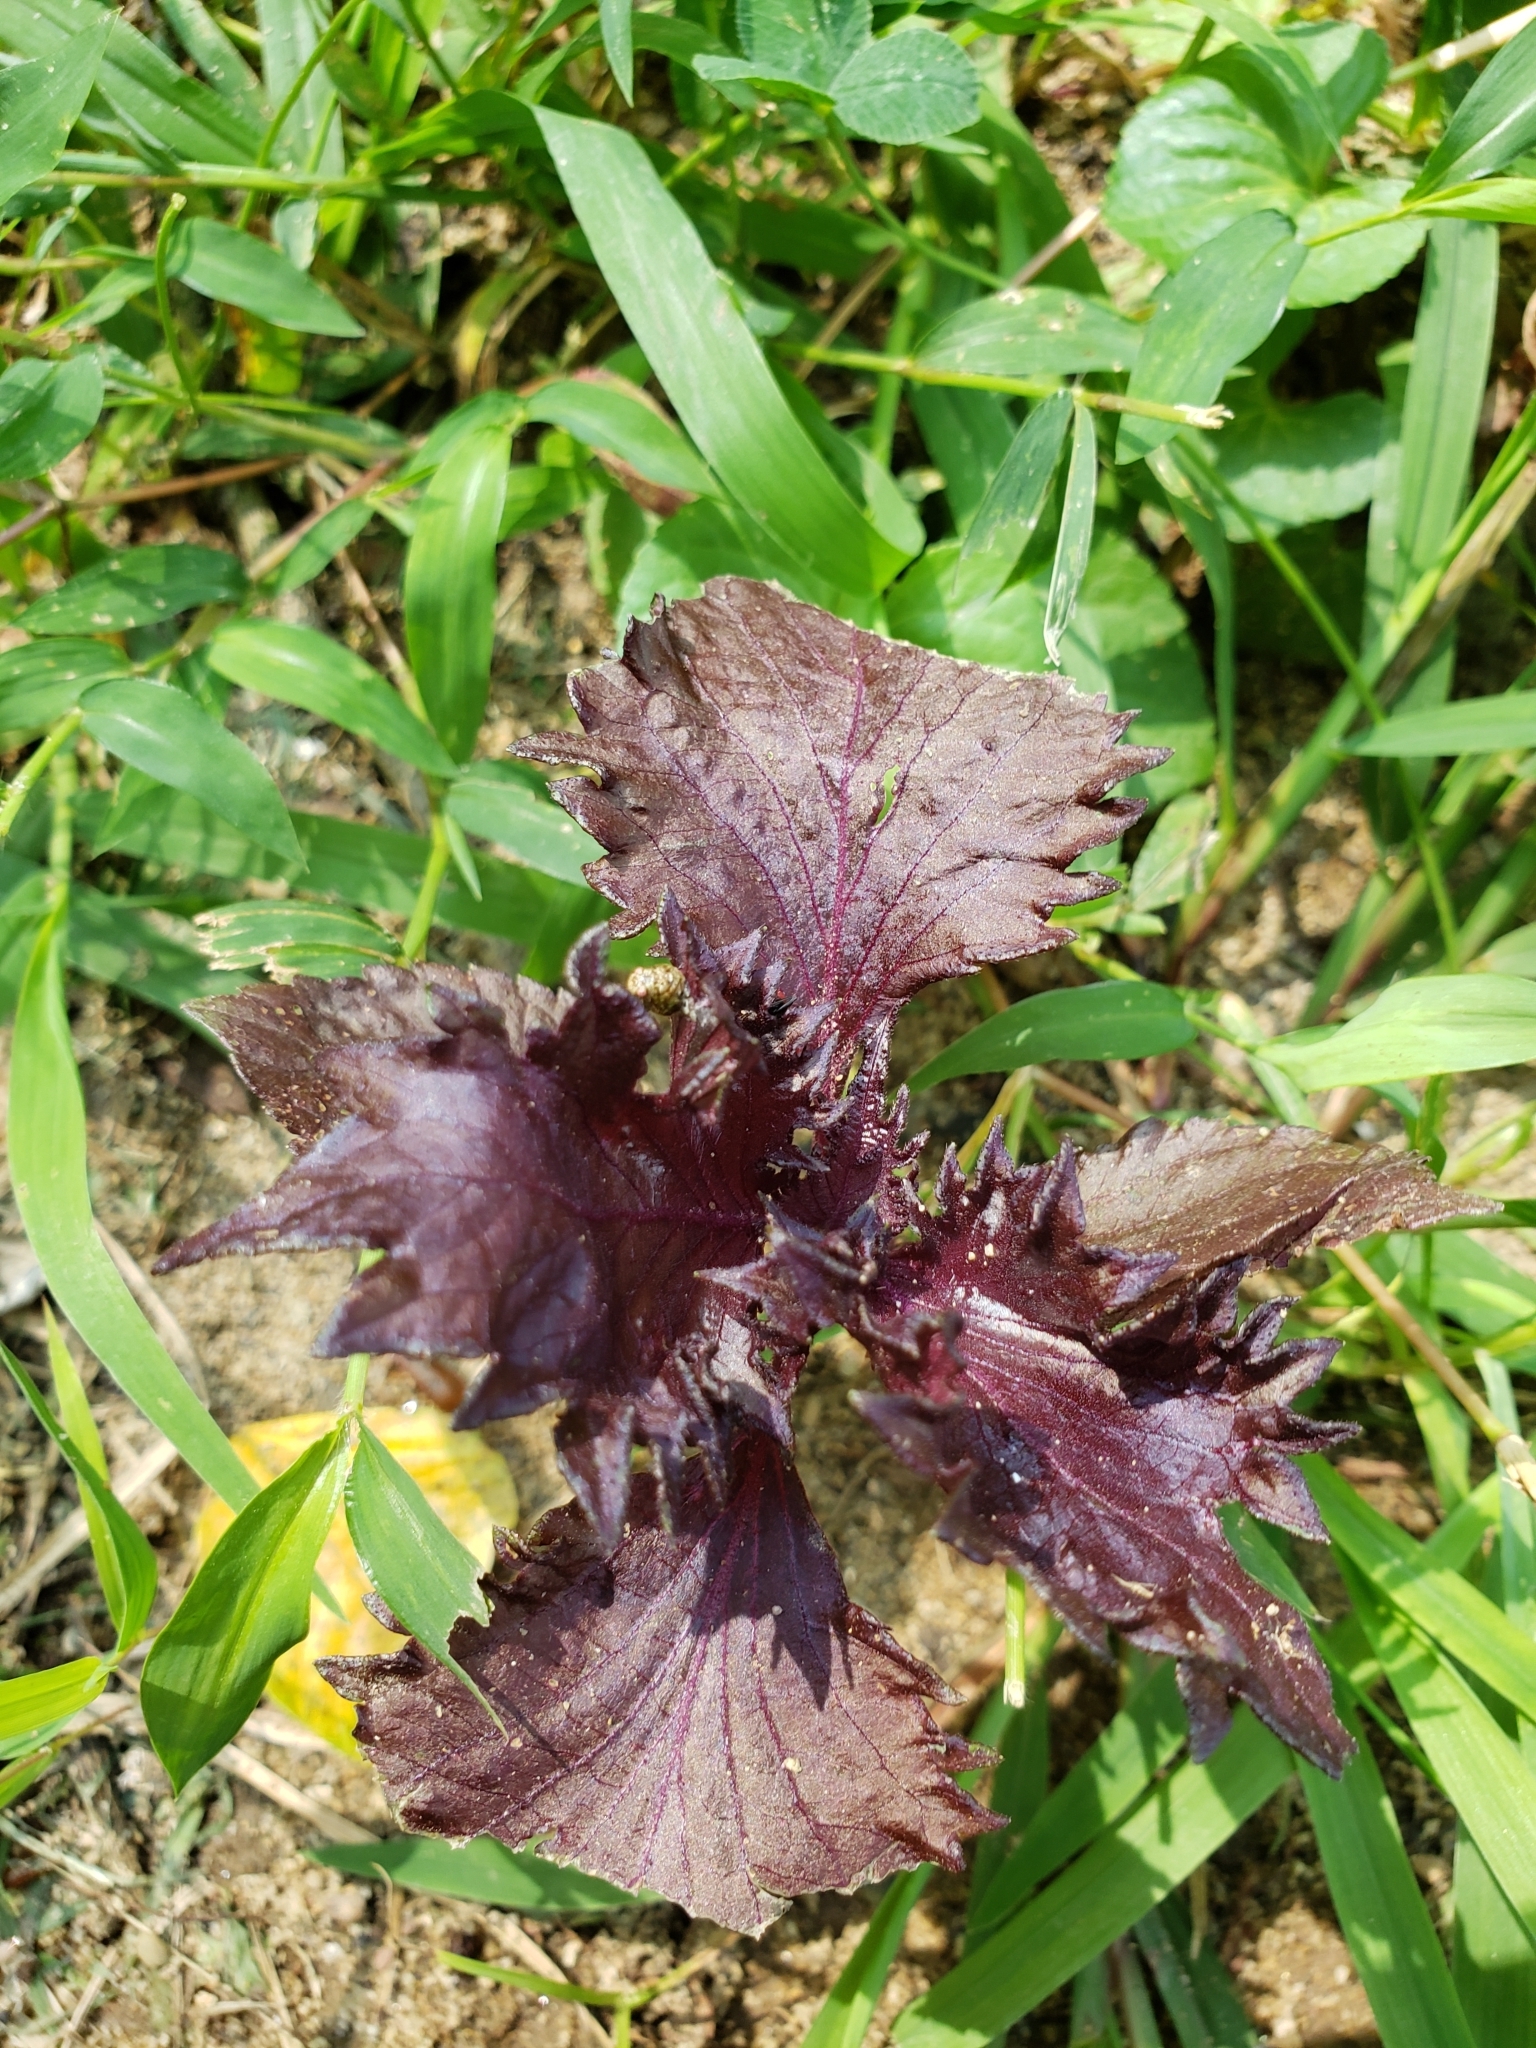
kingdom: Plantae
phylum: Tracheophyta
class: Magnoliopsida
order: Lamiales
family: Lamiaceae
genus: Perilla
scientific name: Perilla frutescens
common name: Perilla
